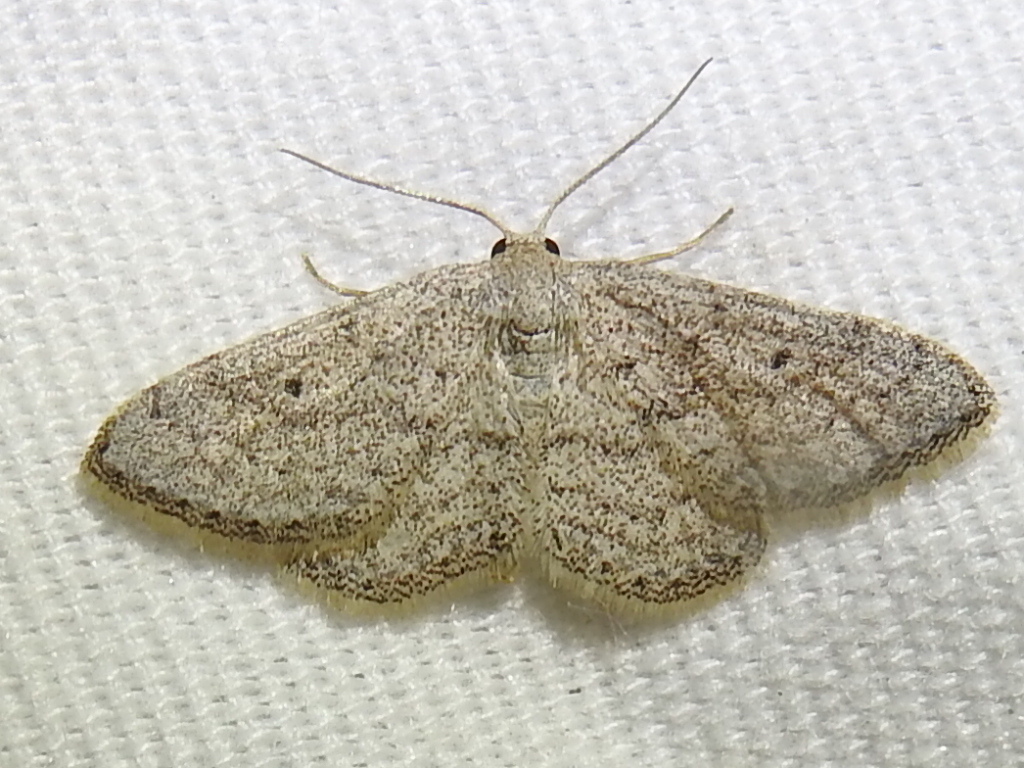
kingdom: Animalia
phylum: Arthropoda
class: Insecta
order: Lepidoptera
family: Geometridae
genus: Lobocleta
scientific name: Lobocleta ossularia
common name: Drab brown wave
